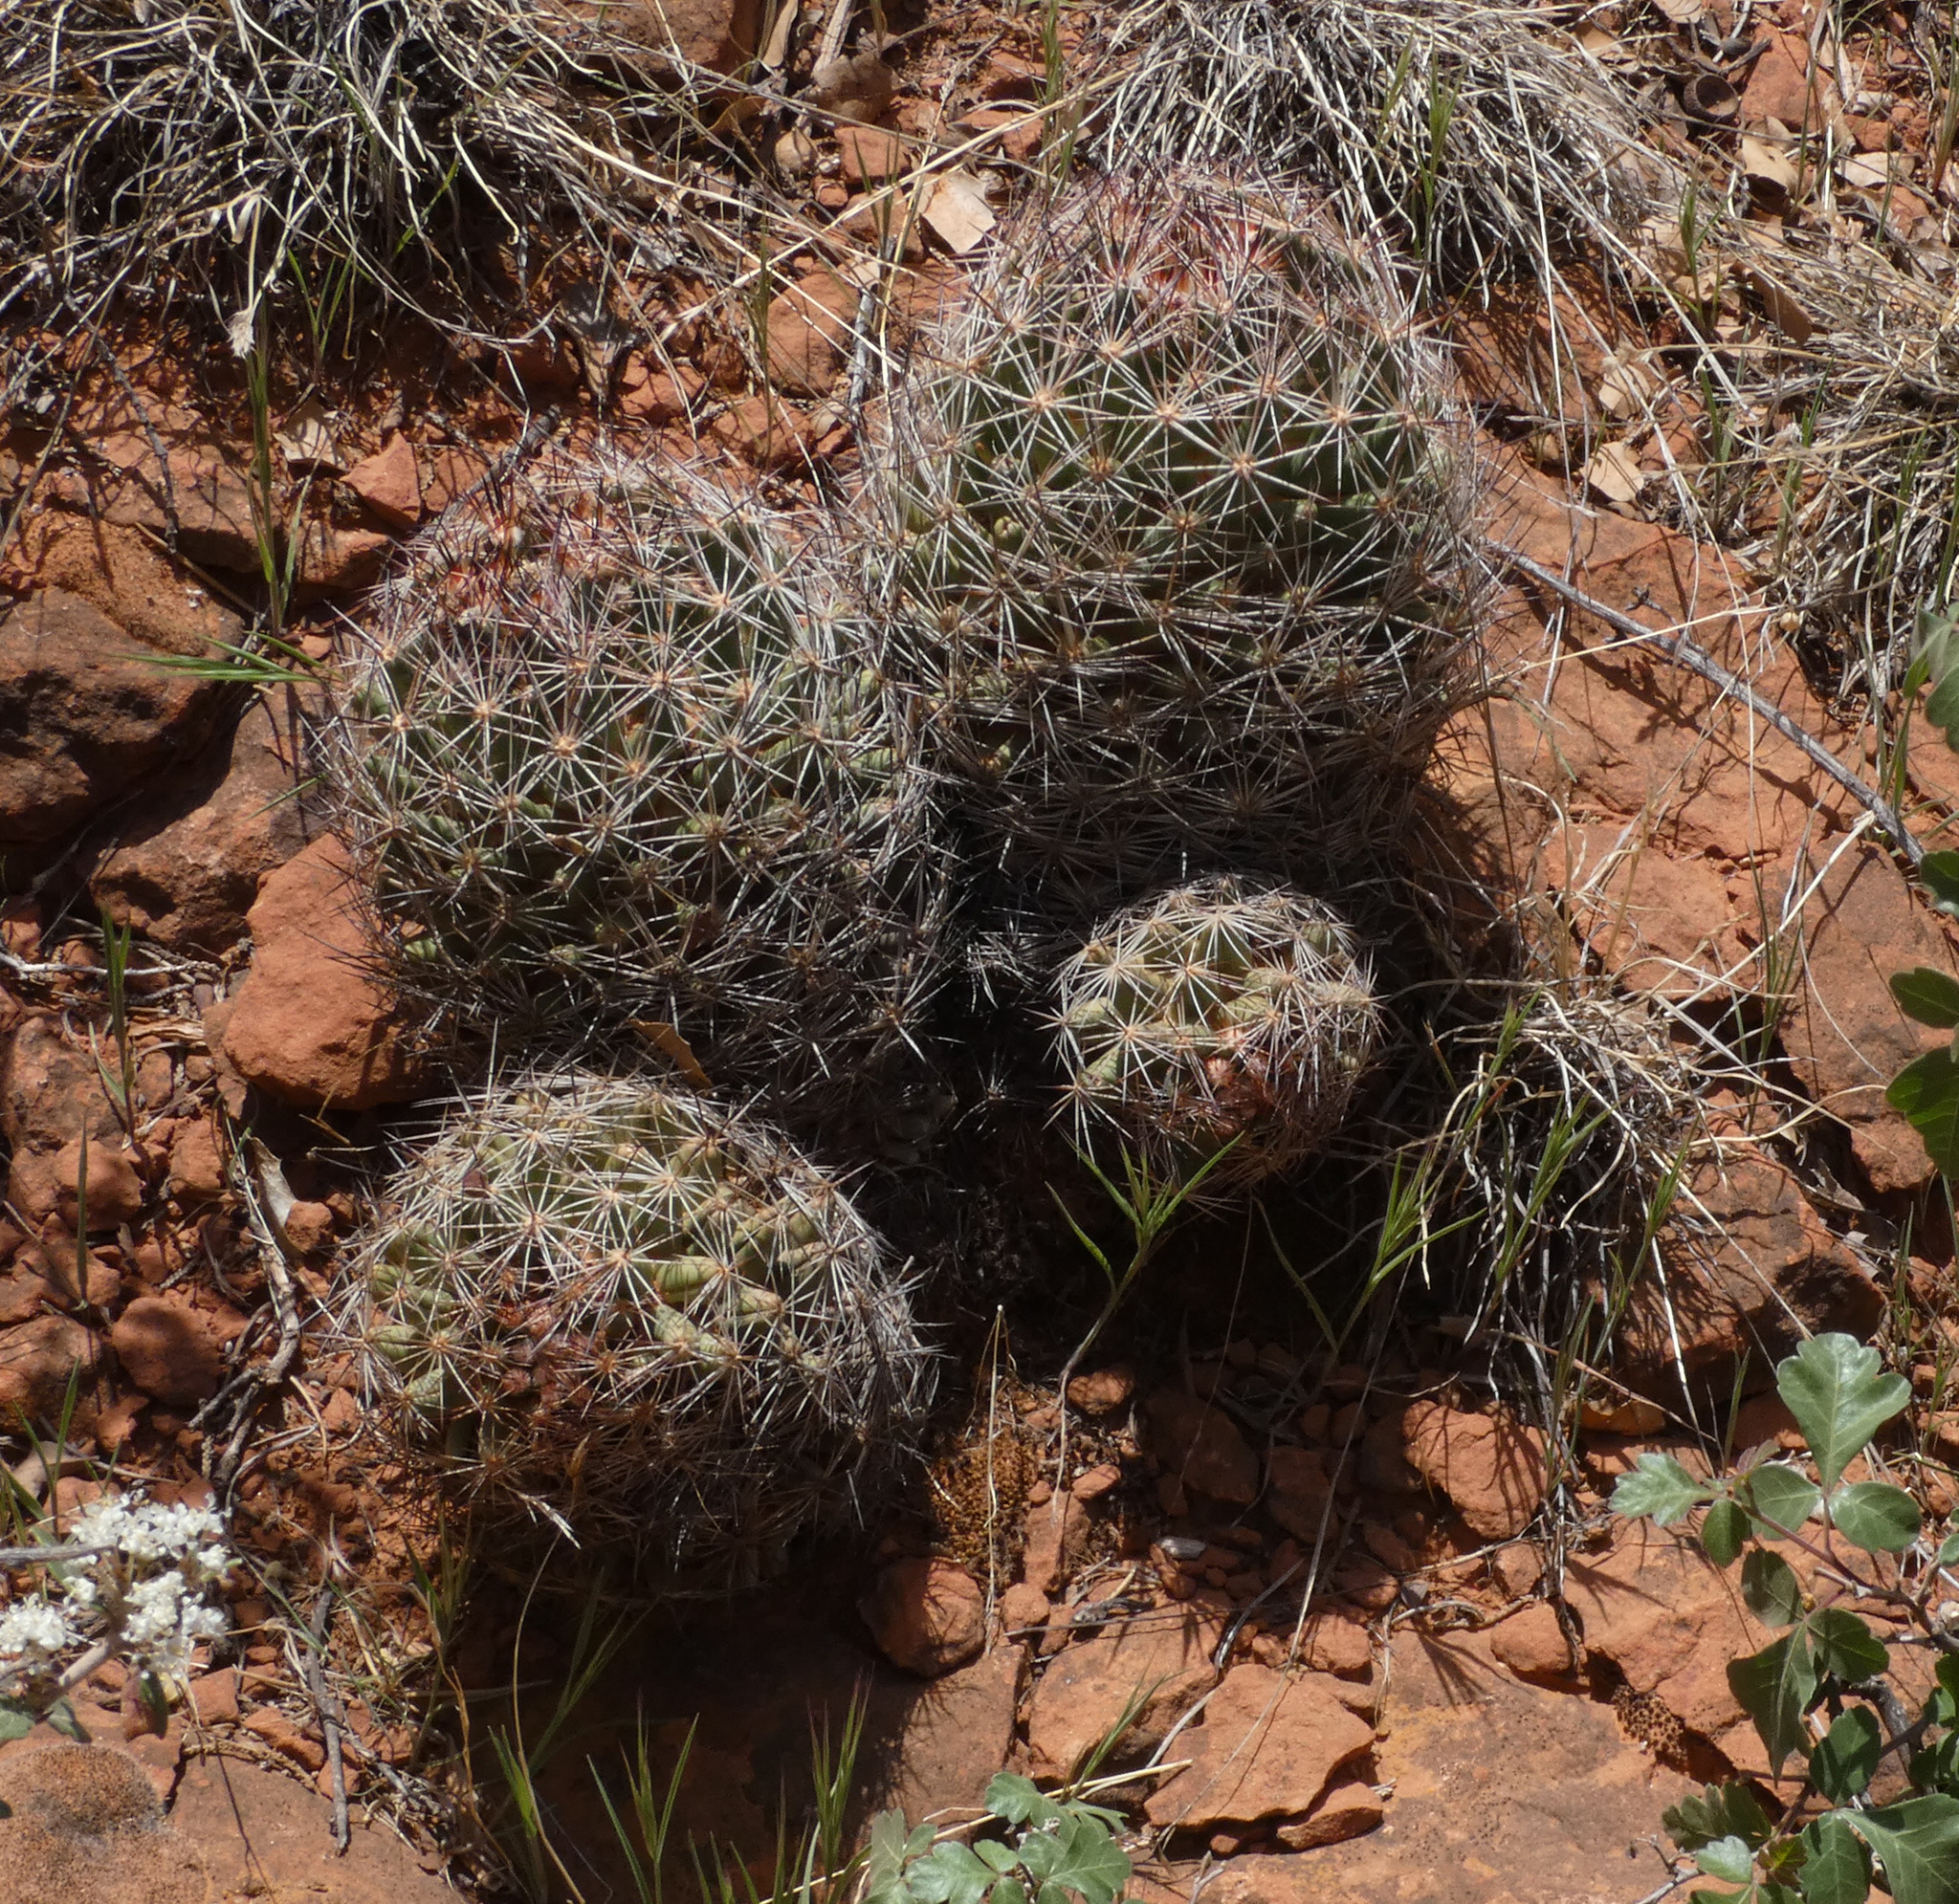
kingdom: Plantae
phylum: Tracheophyta
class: Magnoliopsida
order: Caryophyllales
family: Cactaceae
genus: Pelecyphora
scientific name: Pelecyphora vivipara
